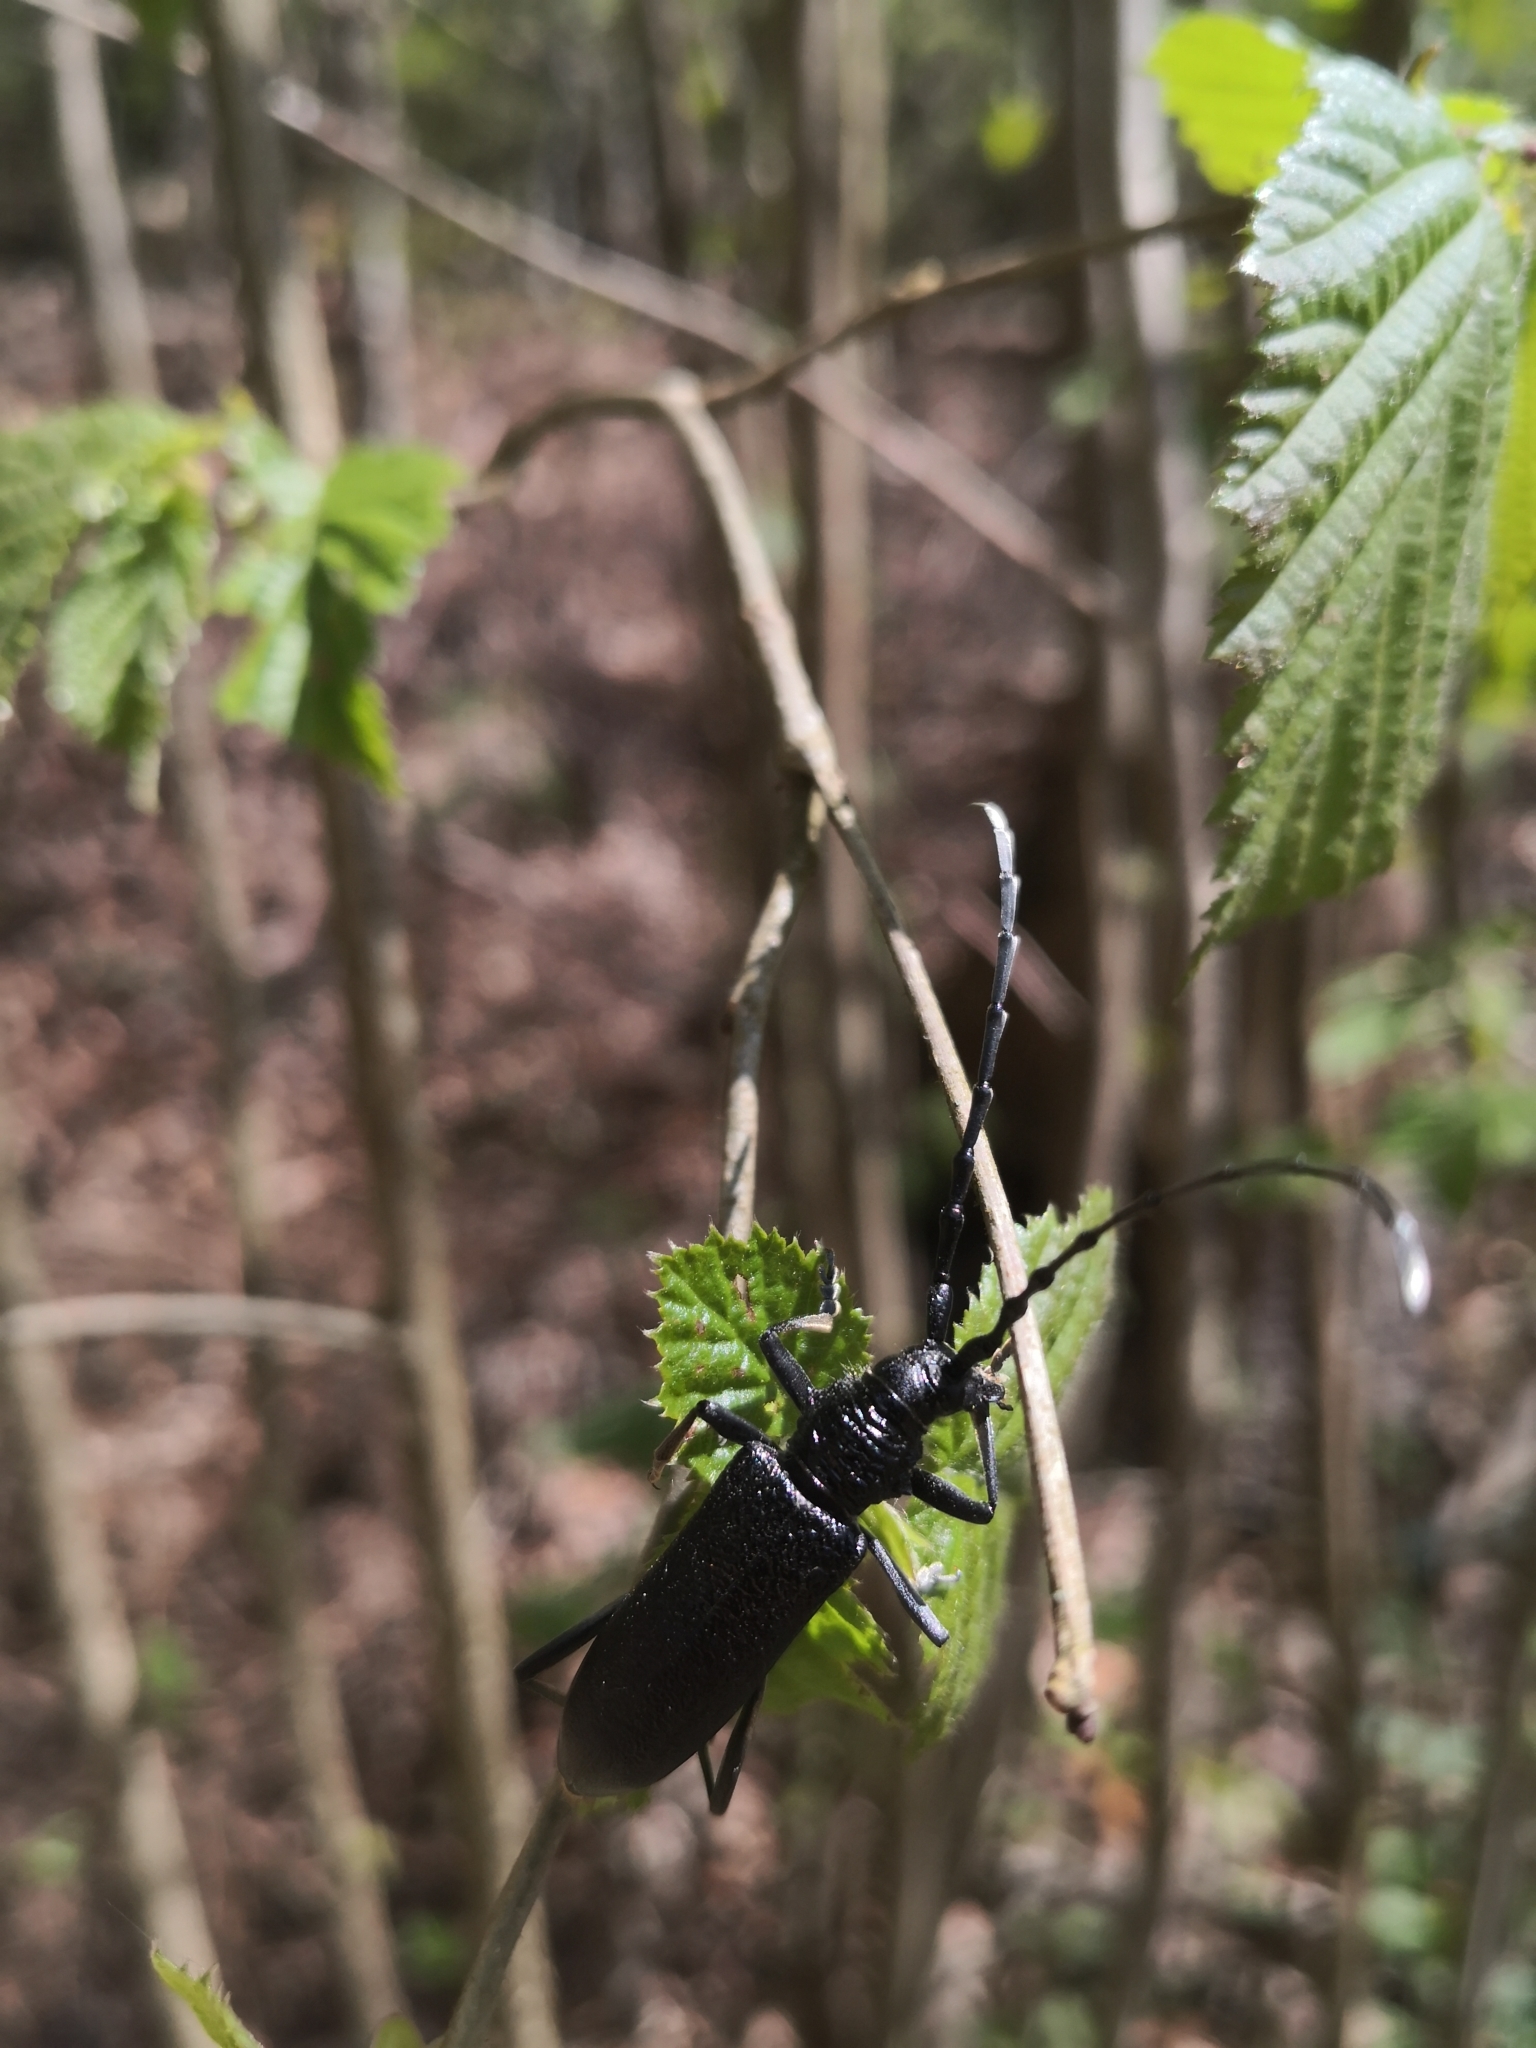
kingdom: Animalia
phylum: Arthropoda
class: Insecta
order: Coleoptera
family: Cerambycidae
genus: Cerambyx
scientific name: Cerambyx scopolii
